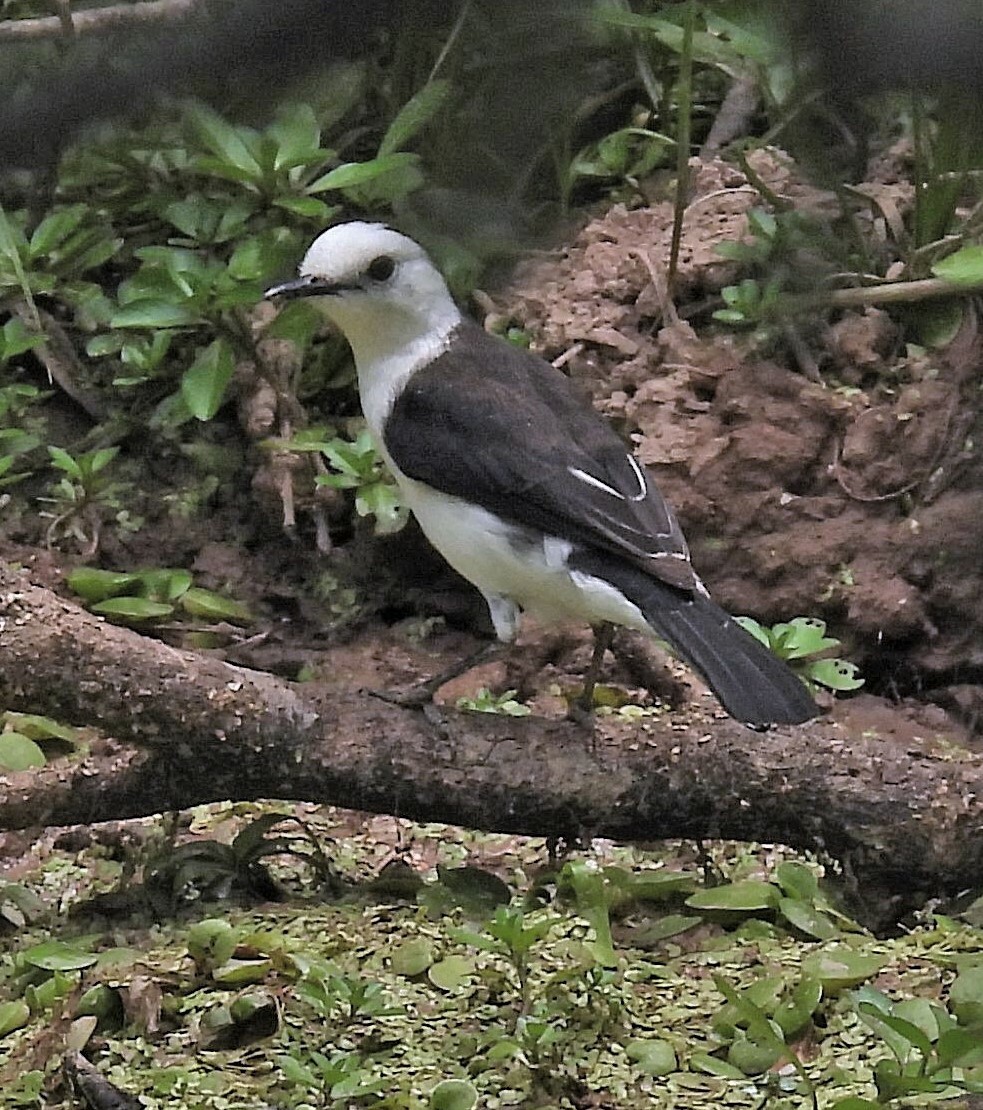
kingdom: Animalia
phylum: Chordata
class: Aves
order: Passeriformes
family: Tyrannidae
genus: Fluvicola
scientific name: Fluvicola pica
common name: Pied water-tyrant
